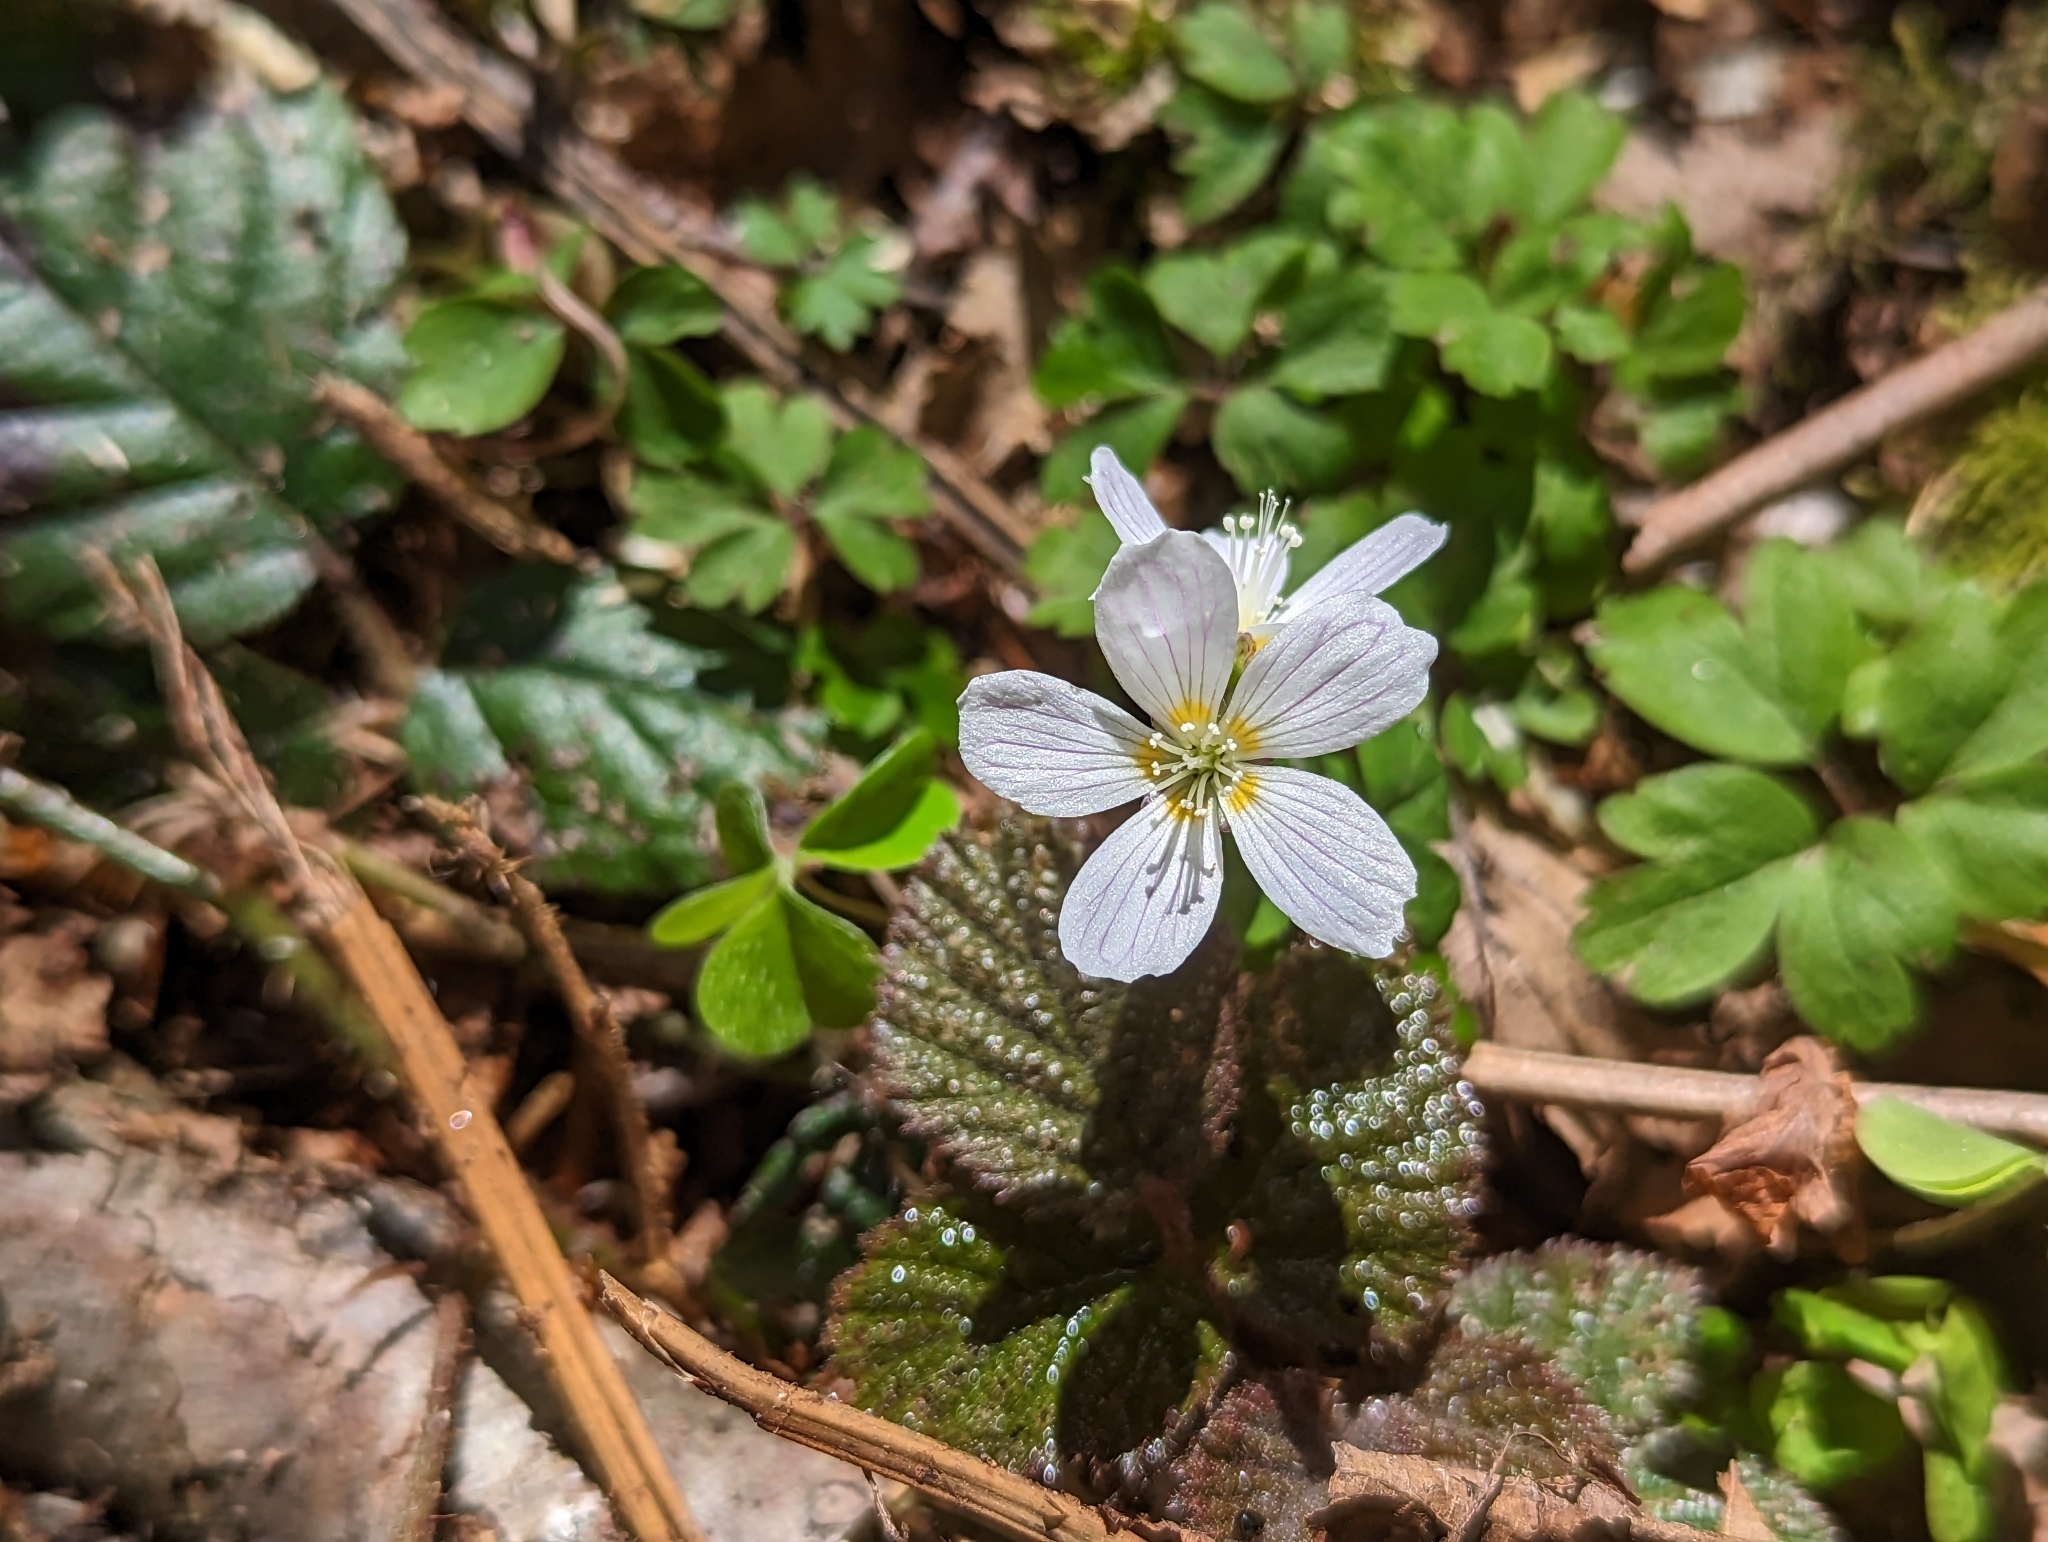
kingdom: Plantae
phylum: Tracheophyta
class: Magnoliopsida
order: Oxalidales
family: Oxalidaceae
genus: Oxalis
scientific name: Oxalis acetosella
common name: Wood-sorrel
